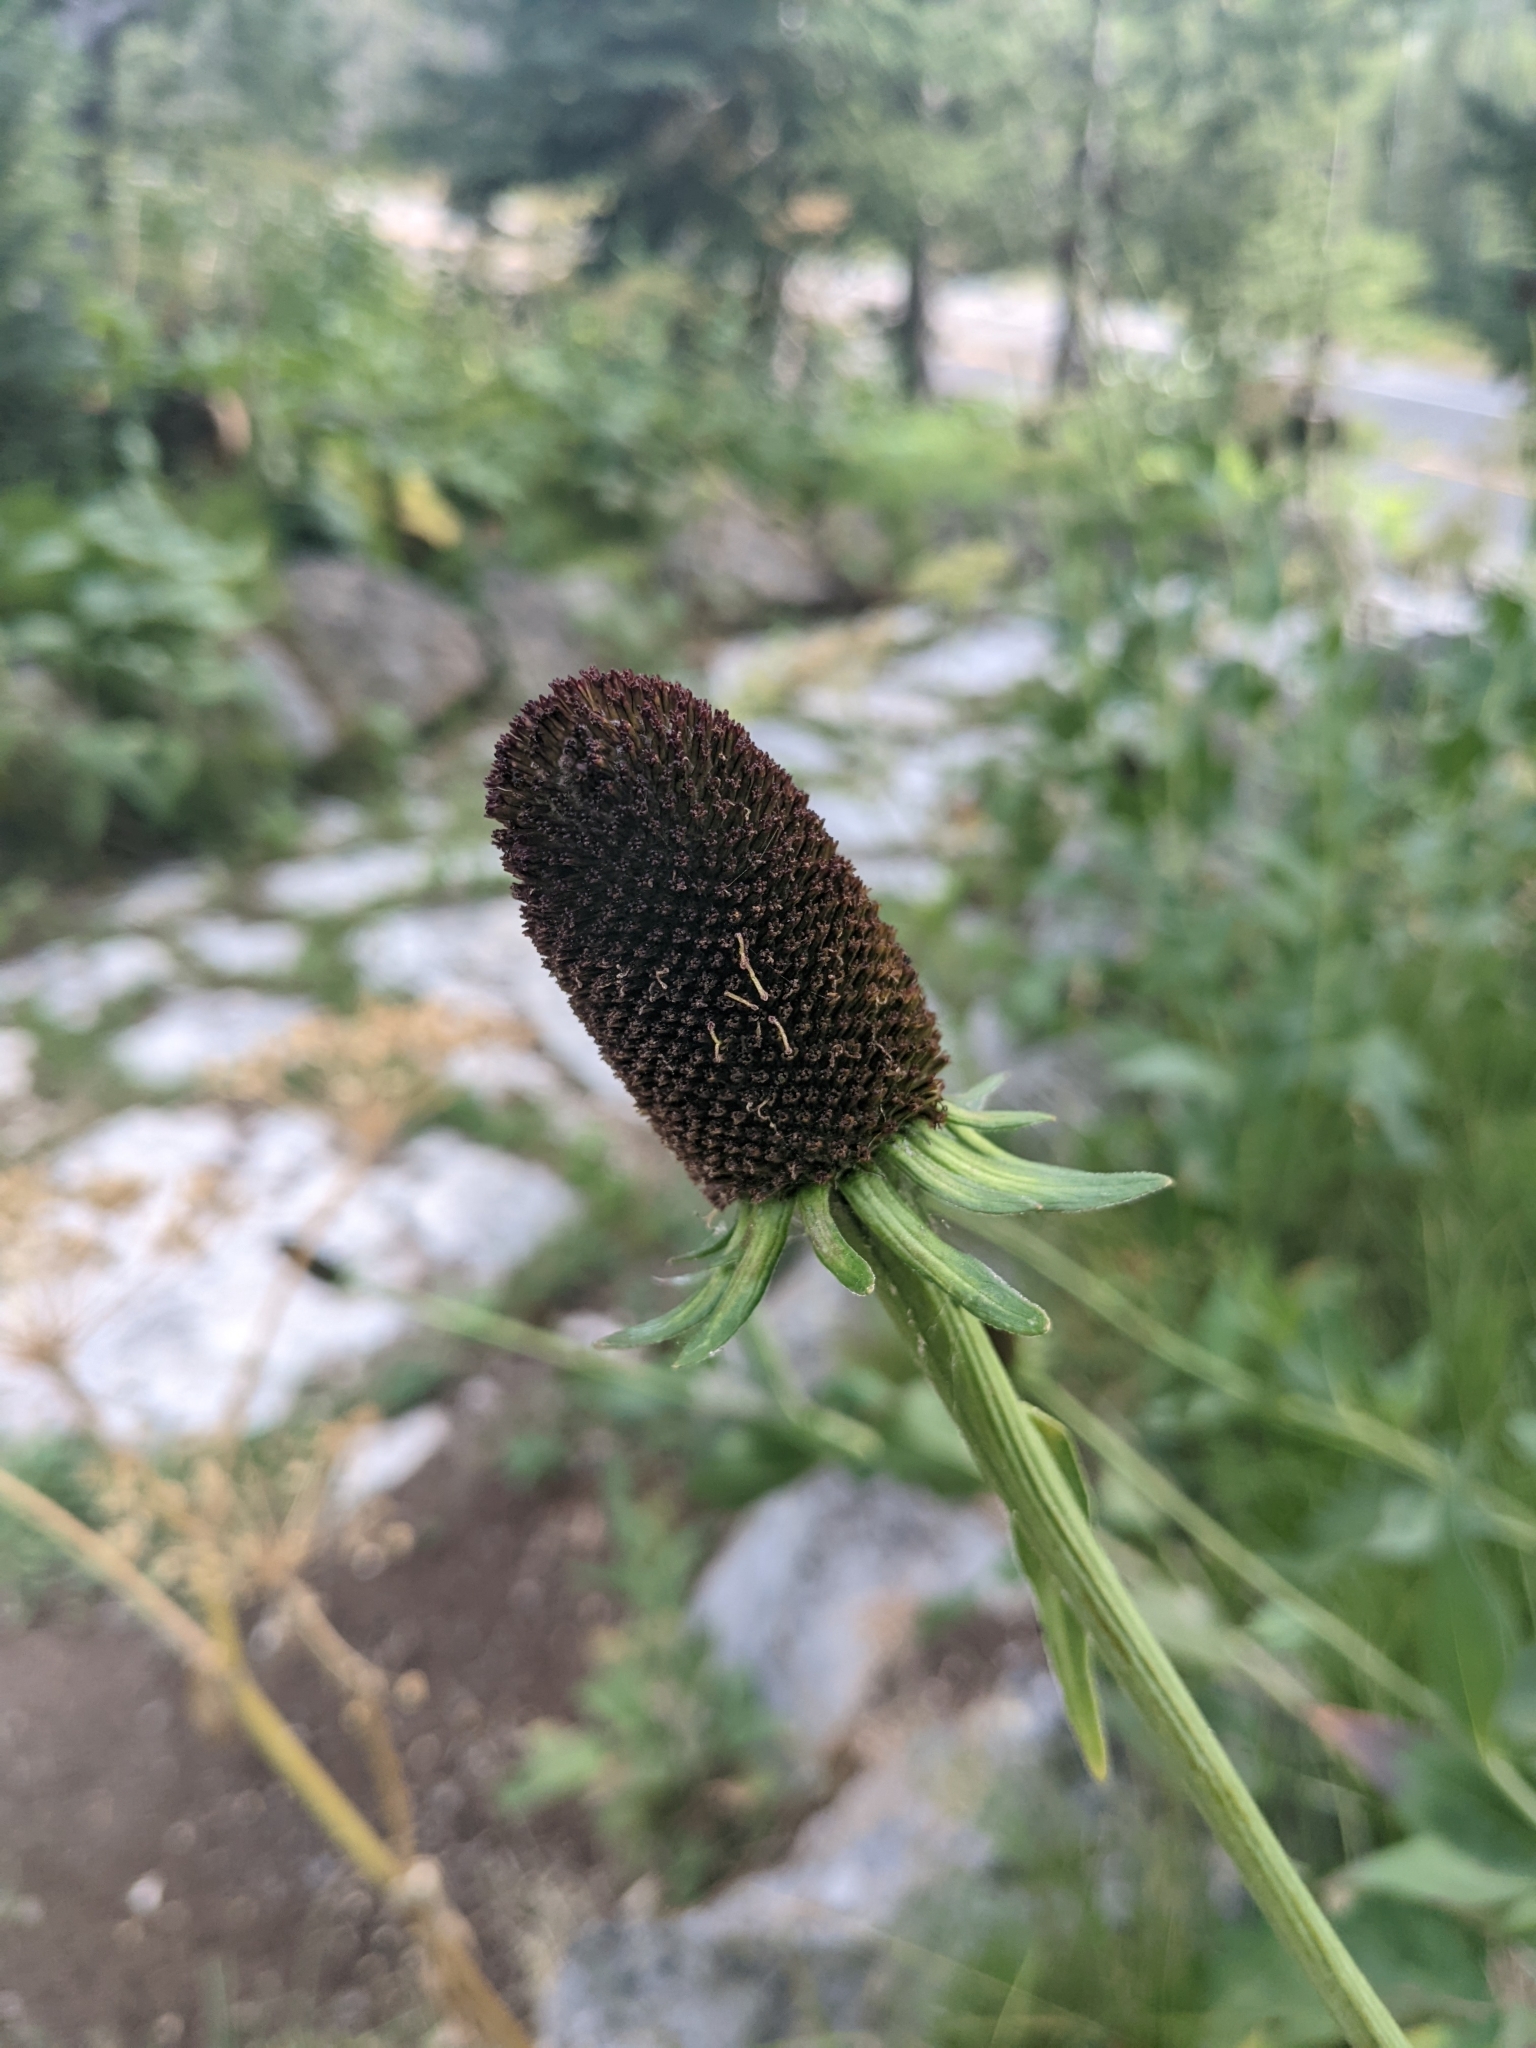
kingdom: Plantae
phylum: Tracheophyta
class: Magnoliopsida
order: Asterales
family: Asteraceae
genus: Rudbeckia
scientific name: Rudbeckia occidentalis
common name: Western coneflower
